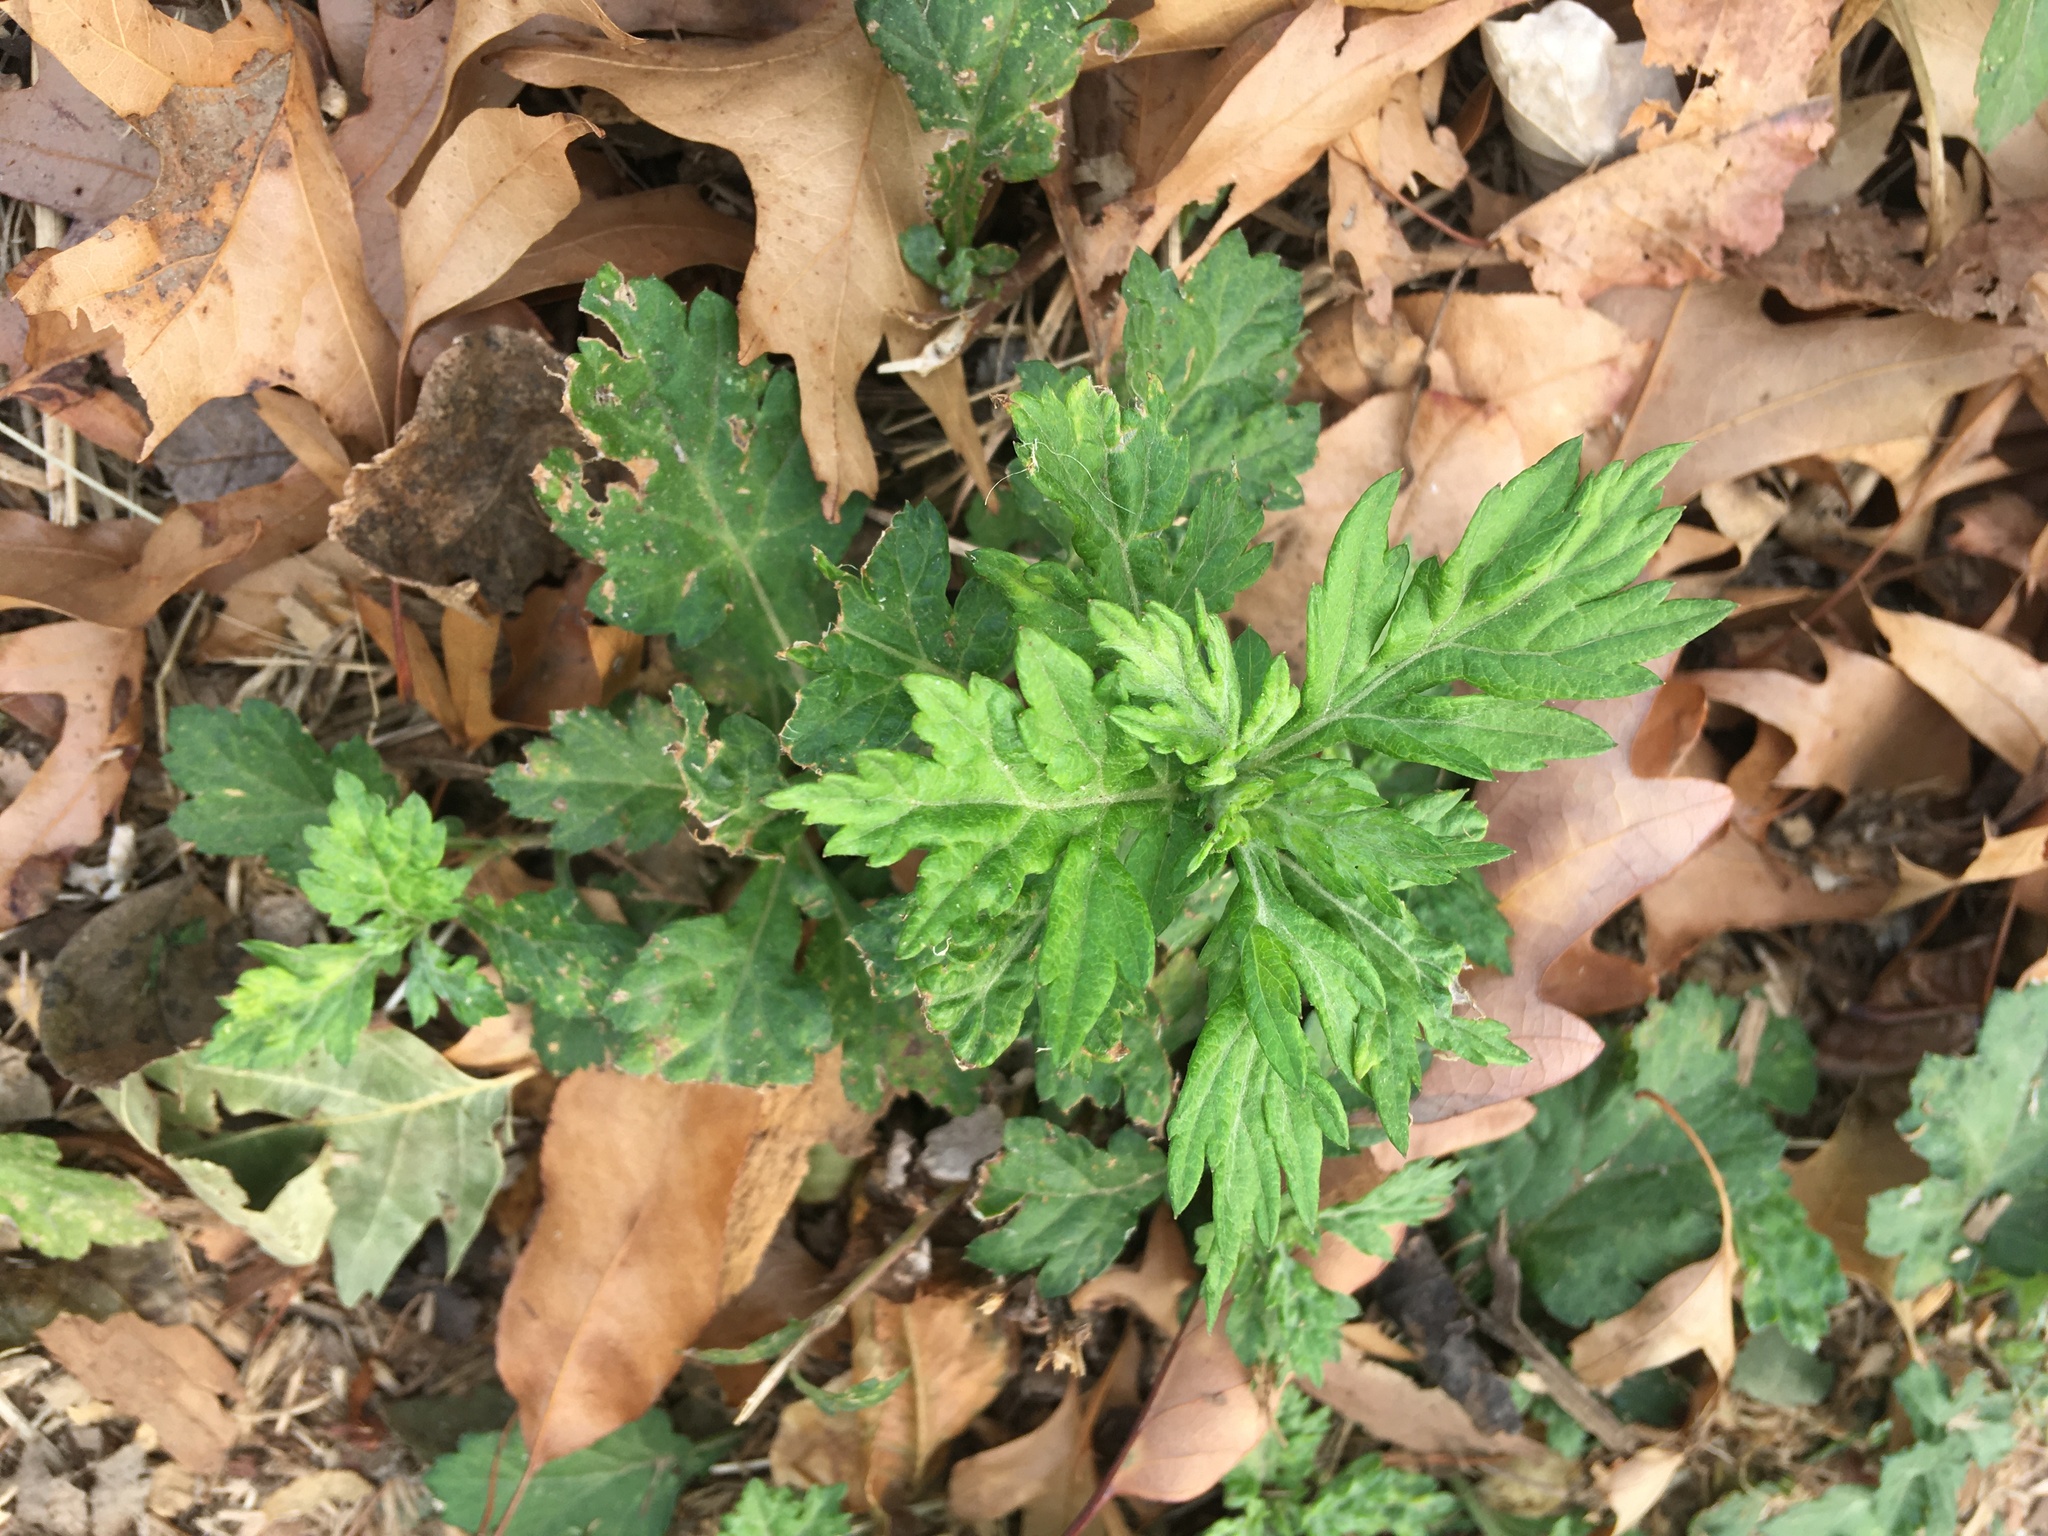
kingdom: Plantae
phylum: Tracheophyta
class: Magnoliopsida
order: Asterales
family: Asteraceae
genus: Artemisia
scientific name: Artemisia vulgaris
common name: Mugwort
